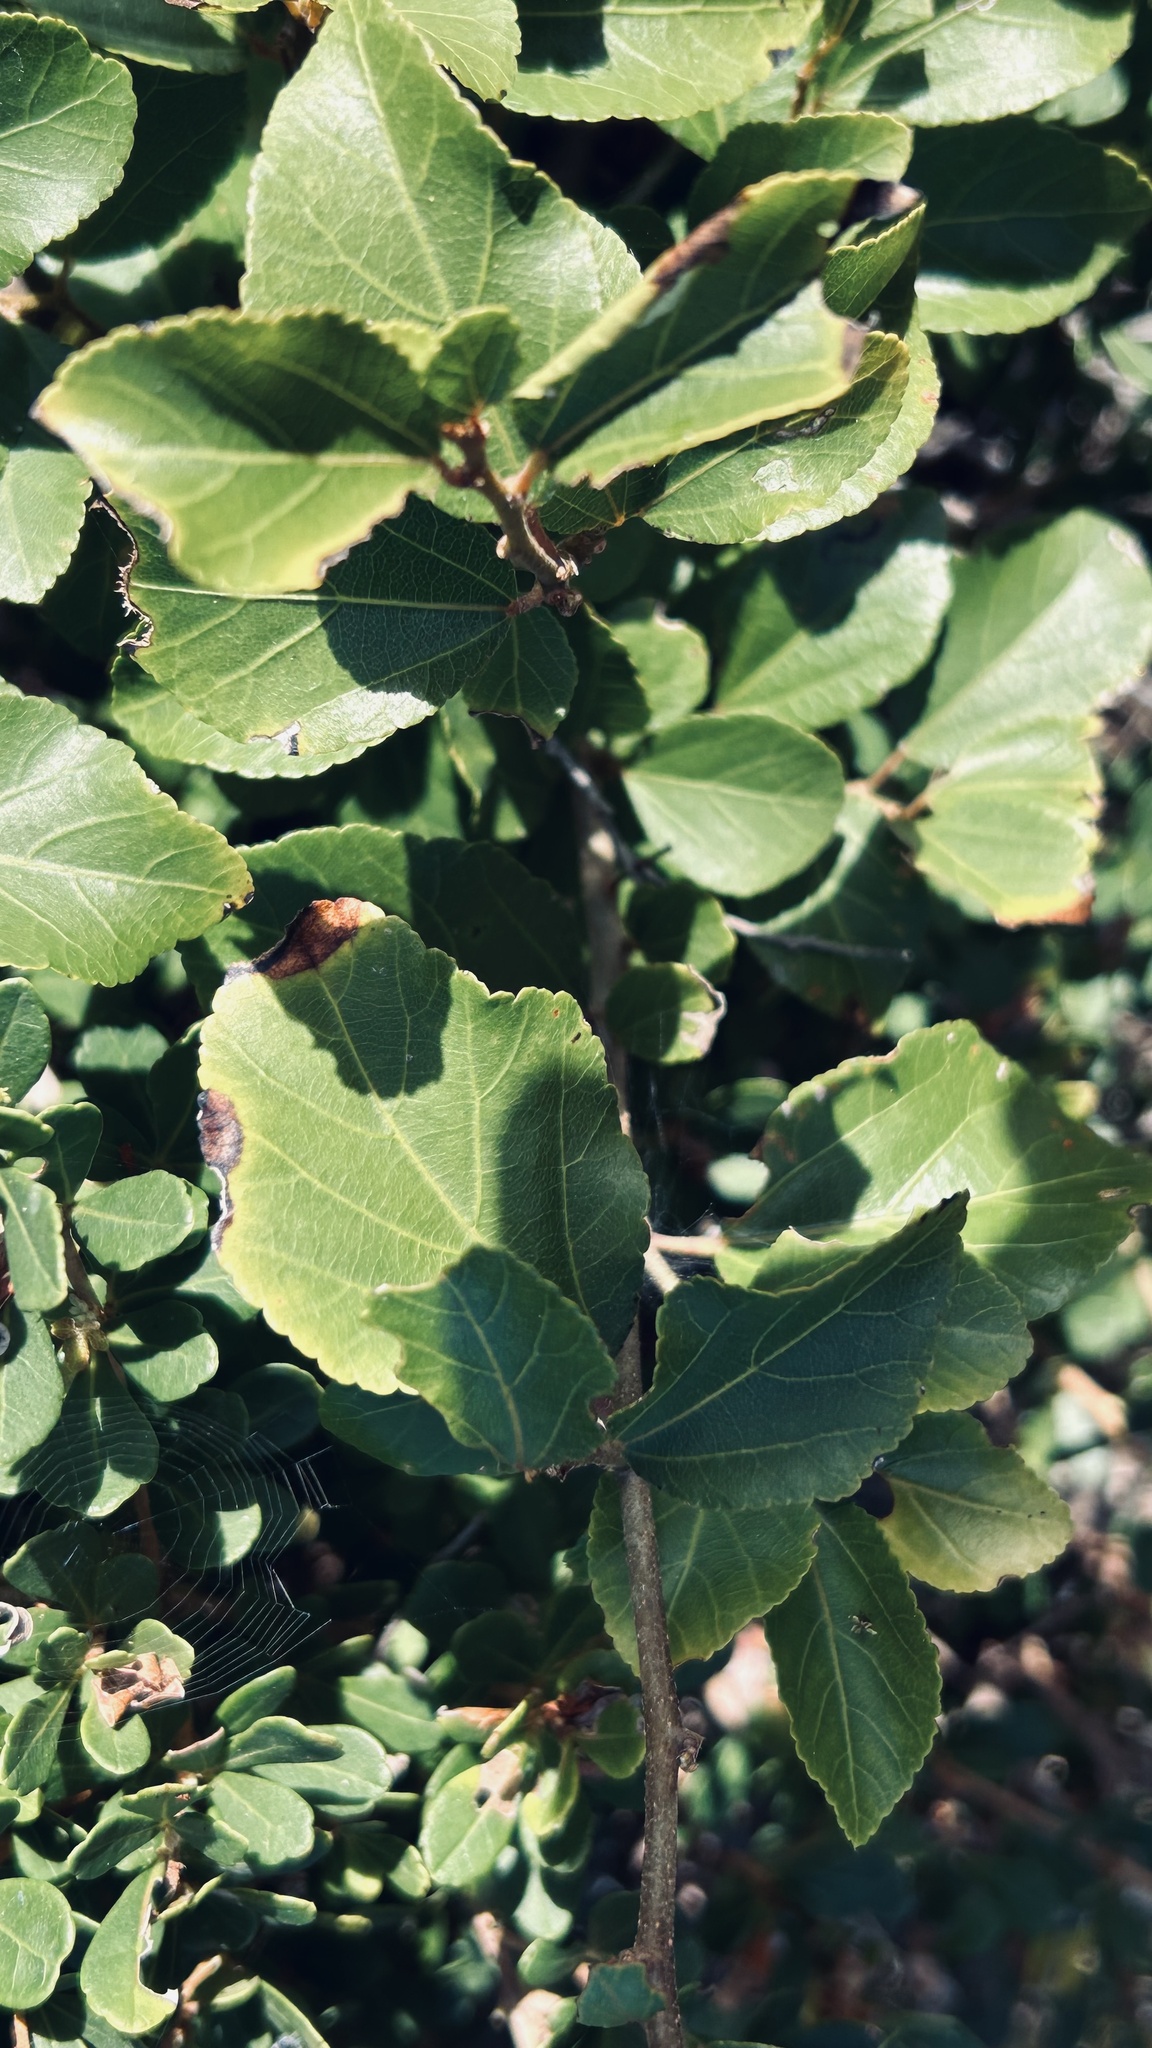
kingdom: Plantae
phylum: Tracheophyta
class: Magnoliopsida
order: Malvales
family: Malvaceae
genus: Grewia
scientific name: Grewia occidentalis
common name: Crossberry
